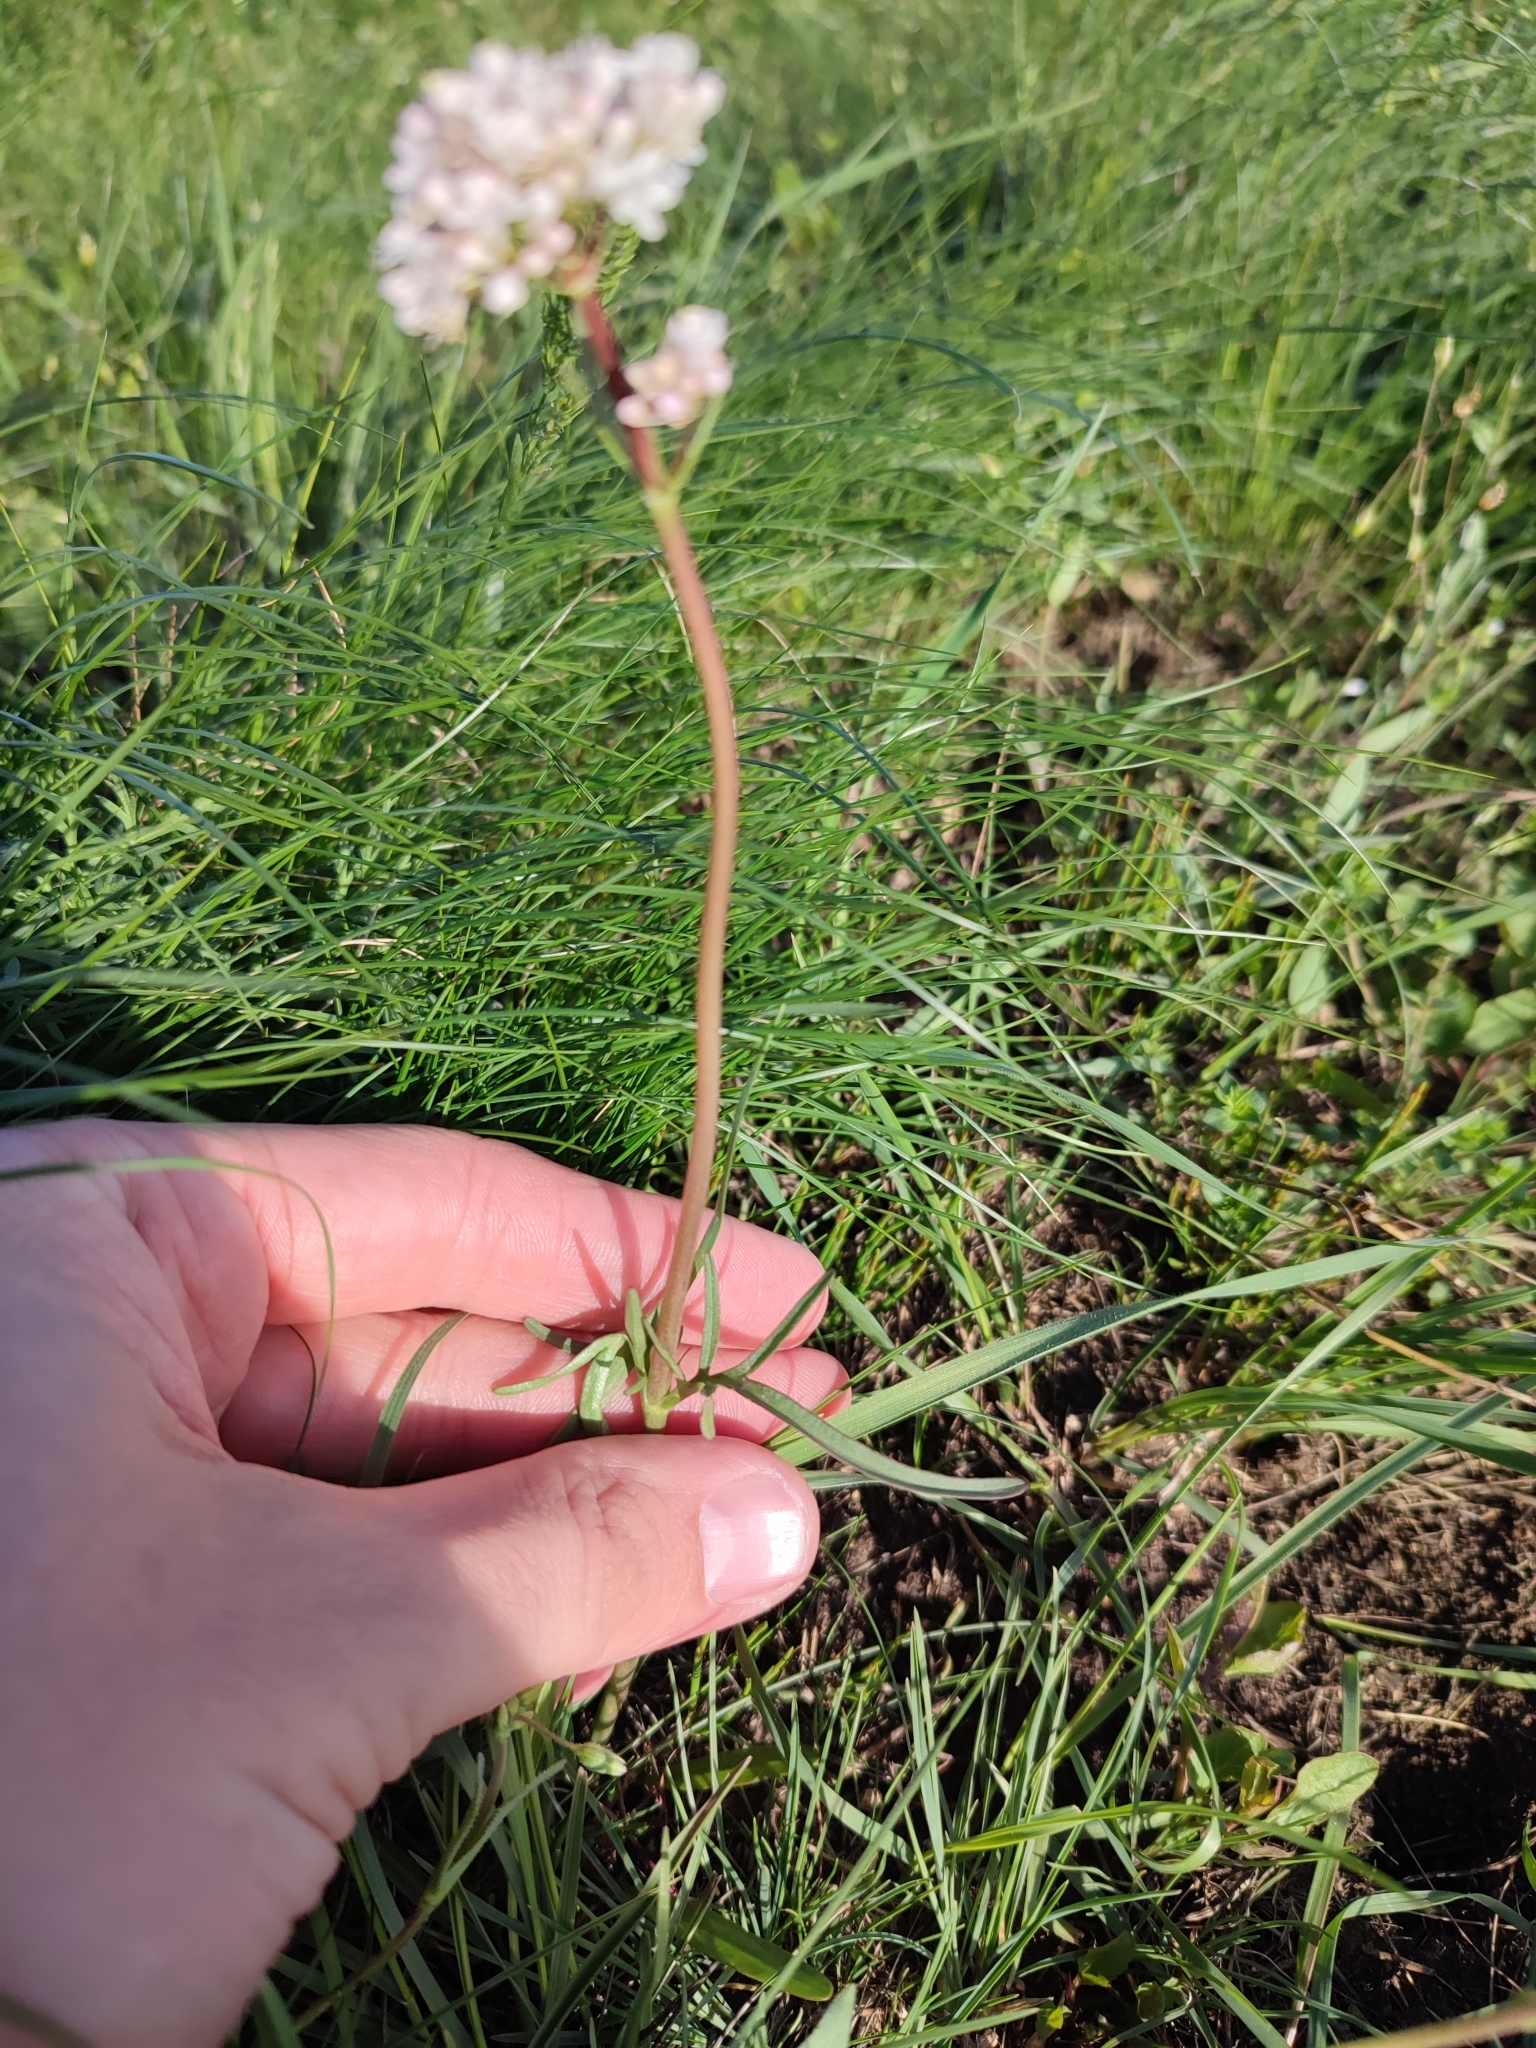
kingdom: Plantae
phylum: Tracheophyta
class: Magnoliopsida
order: Dipsacales
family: Caprifoliaceae
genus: Valeriana
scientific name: Valeriana tuberosa
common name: Tuberous valerian
